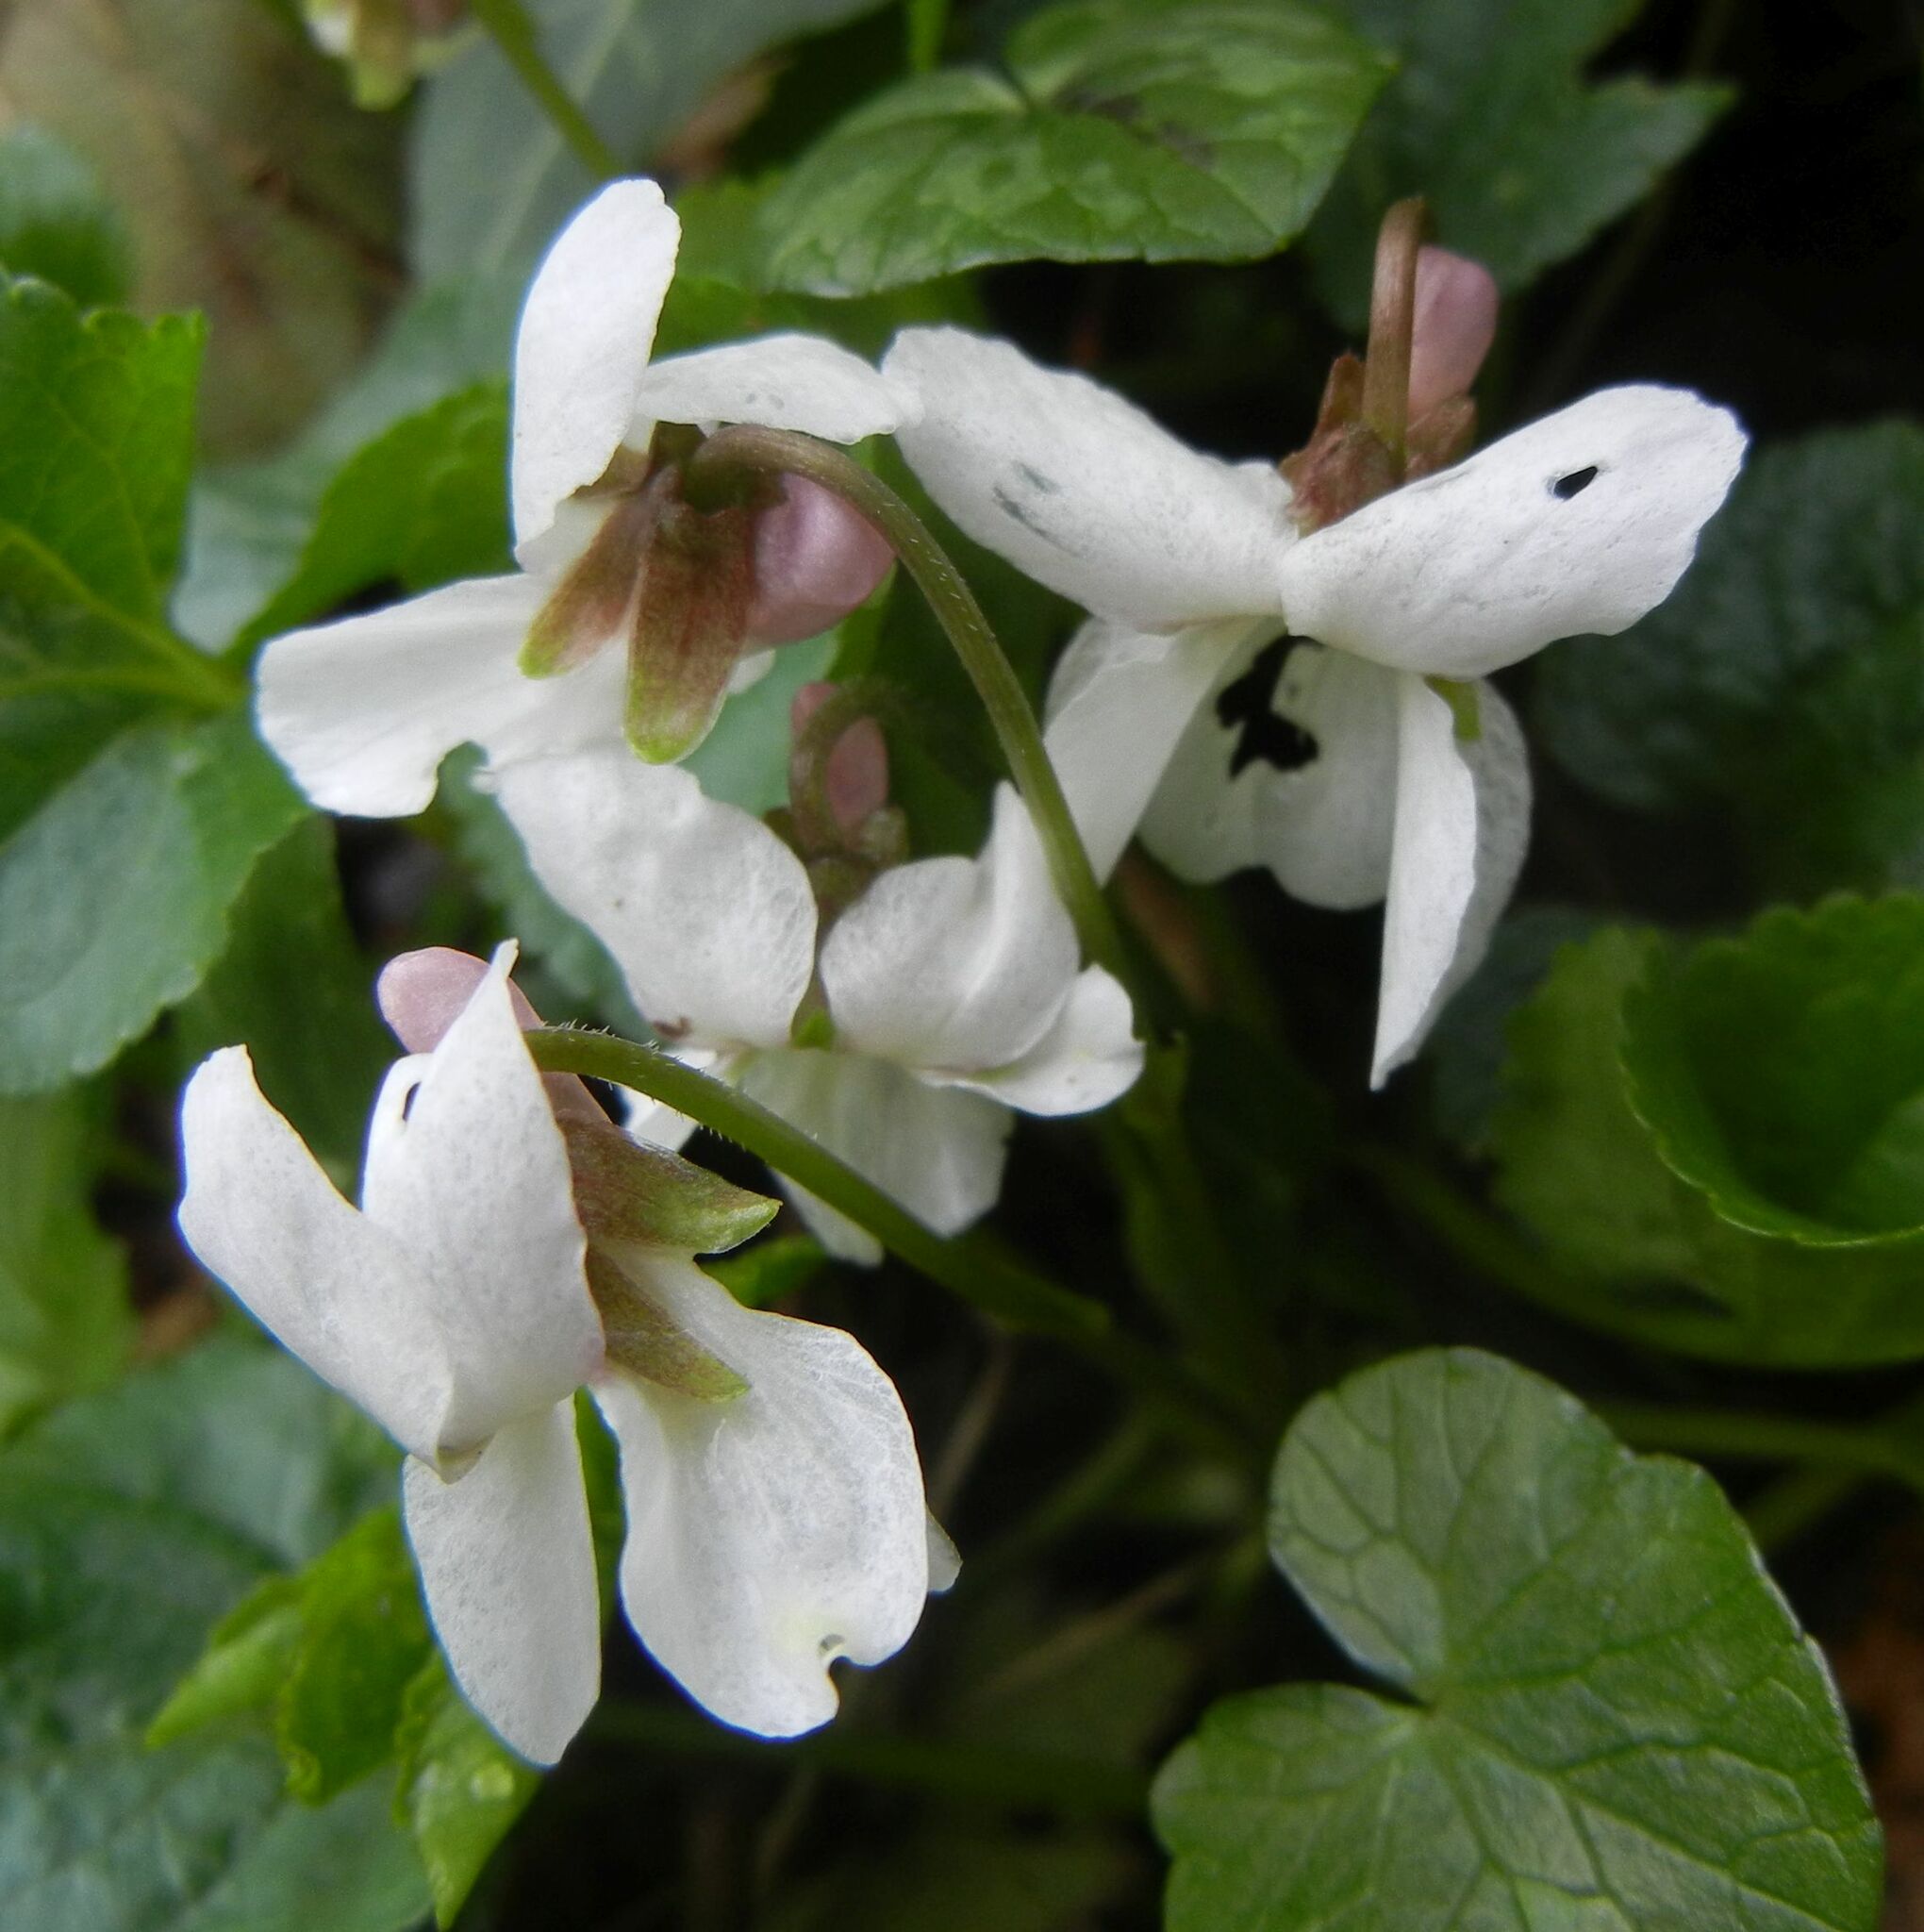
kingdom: Plantae
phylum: Tracheophyta
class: Magnoliopsida
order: Malpighiales
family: Violaceae
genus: Viola
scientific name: Viola odorata
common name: Sweet violet
